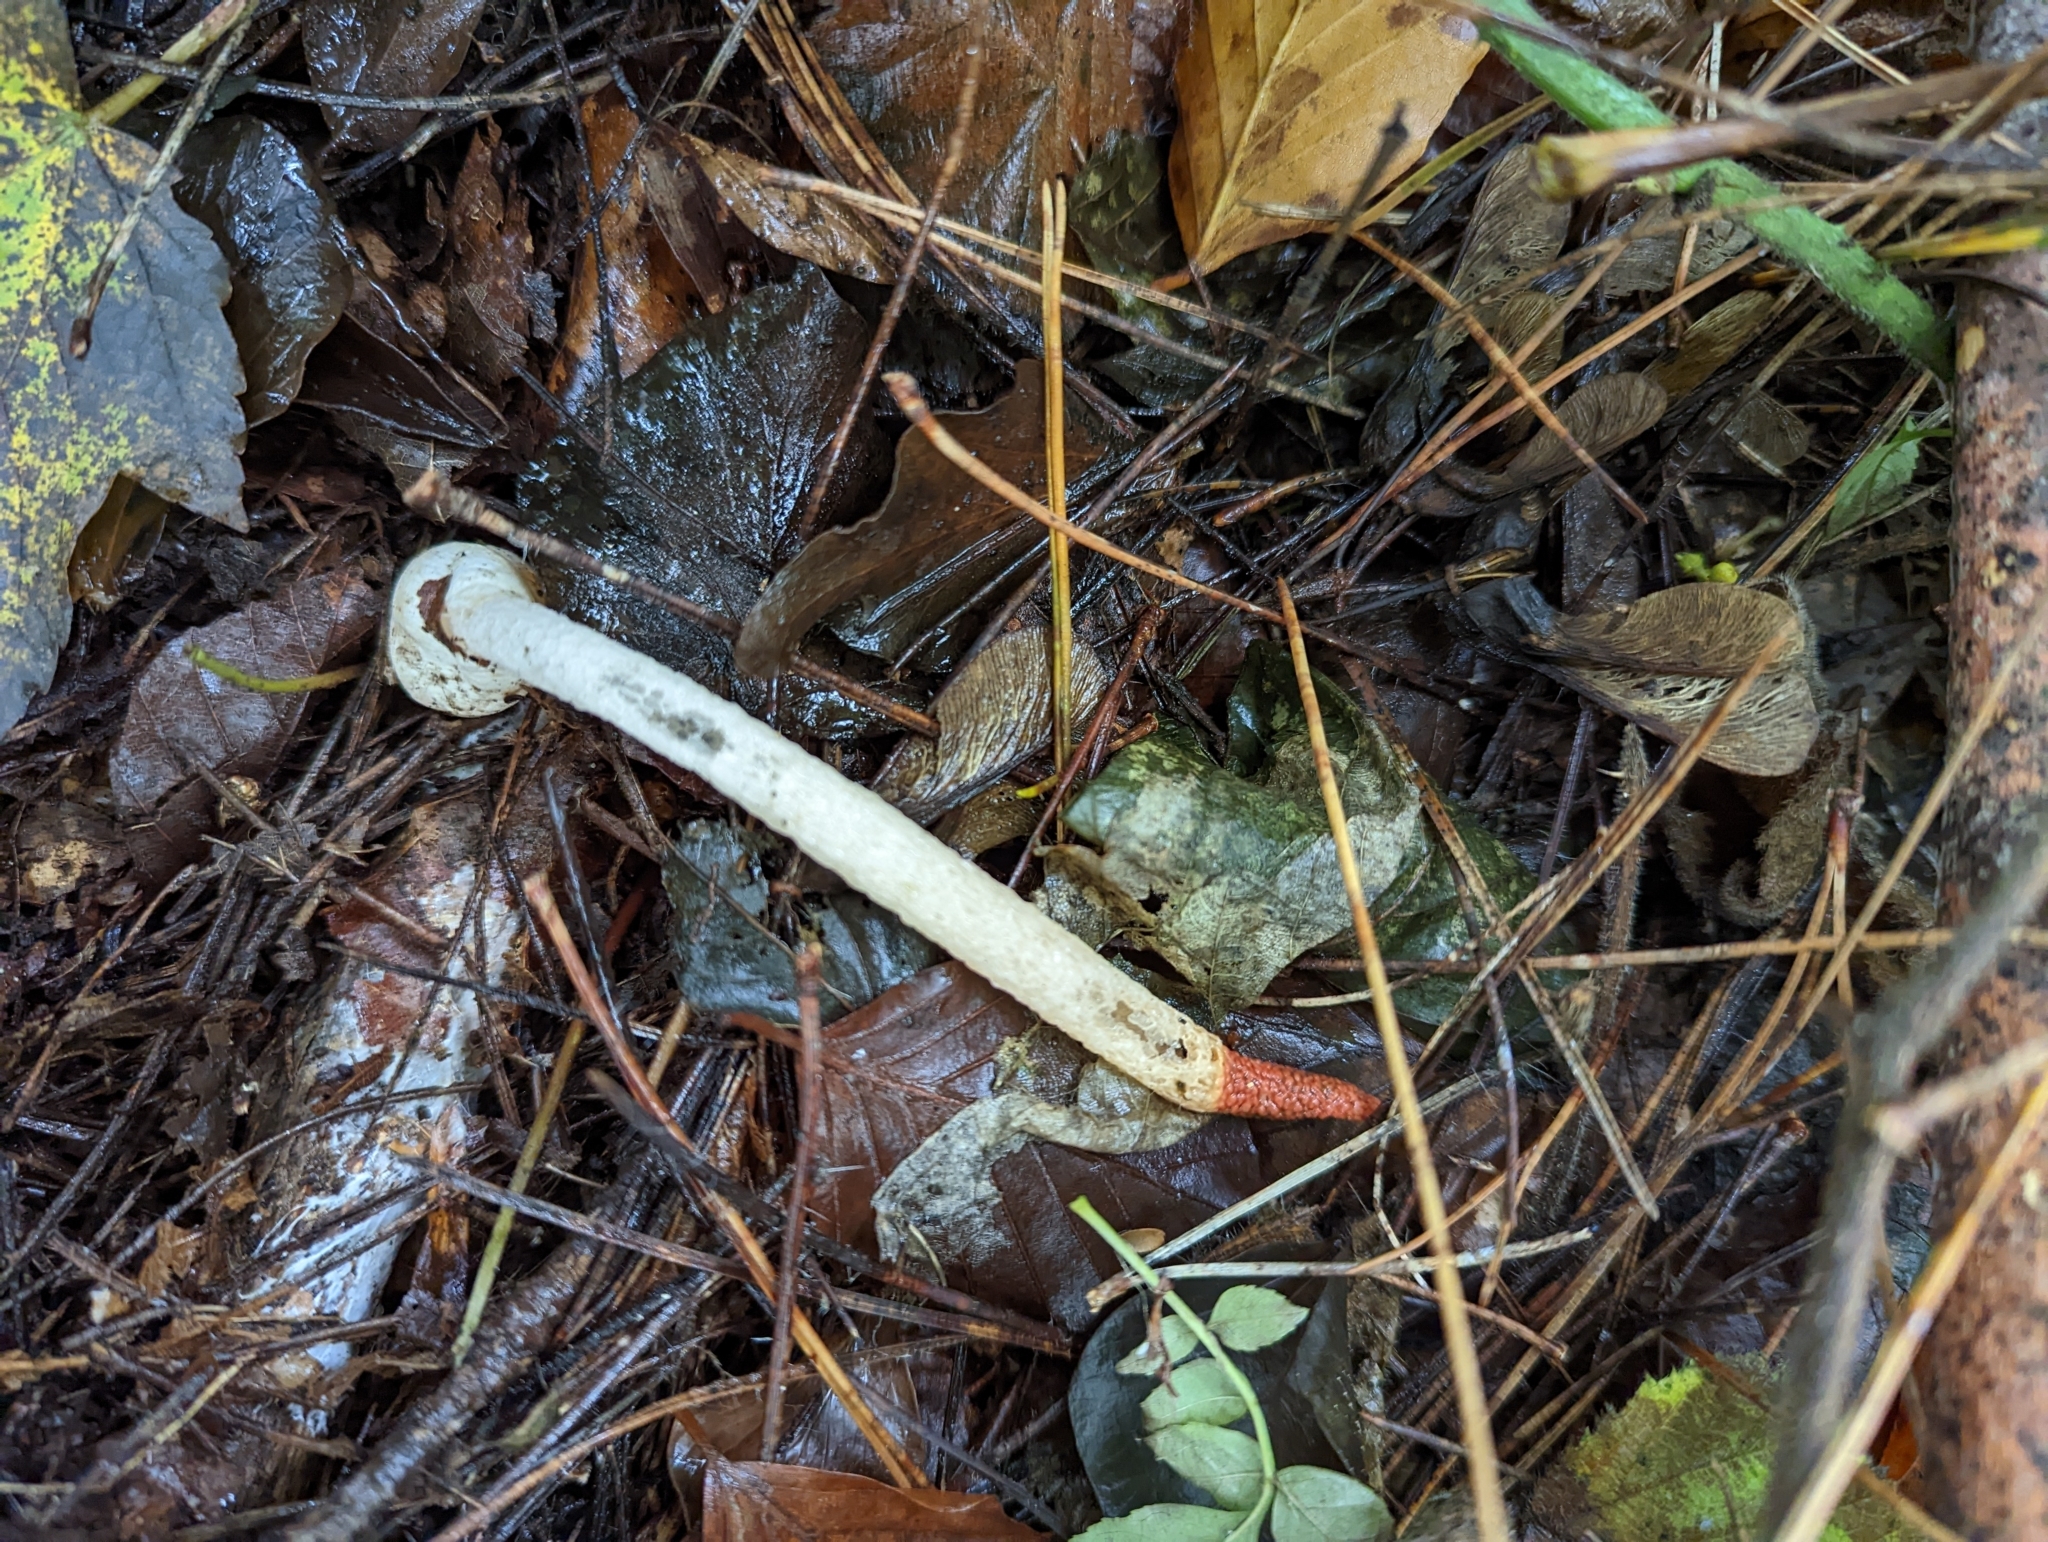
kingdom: Fungi
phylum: Basidiomycota
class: Agaricomycetes
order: Phallales
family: Phallaceae
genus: Mutinus
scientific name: Mutinus caninus
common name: Dog stinkhorn
